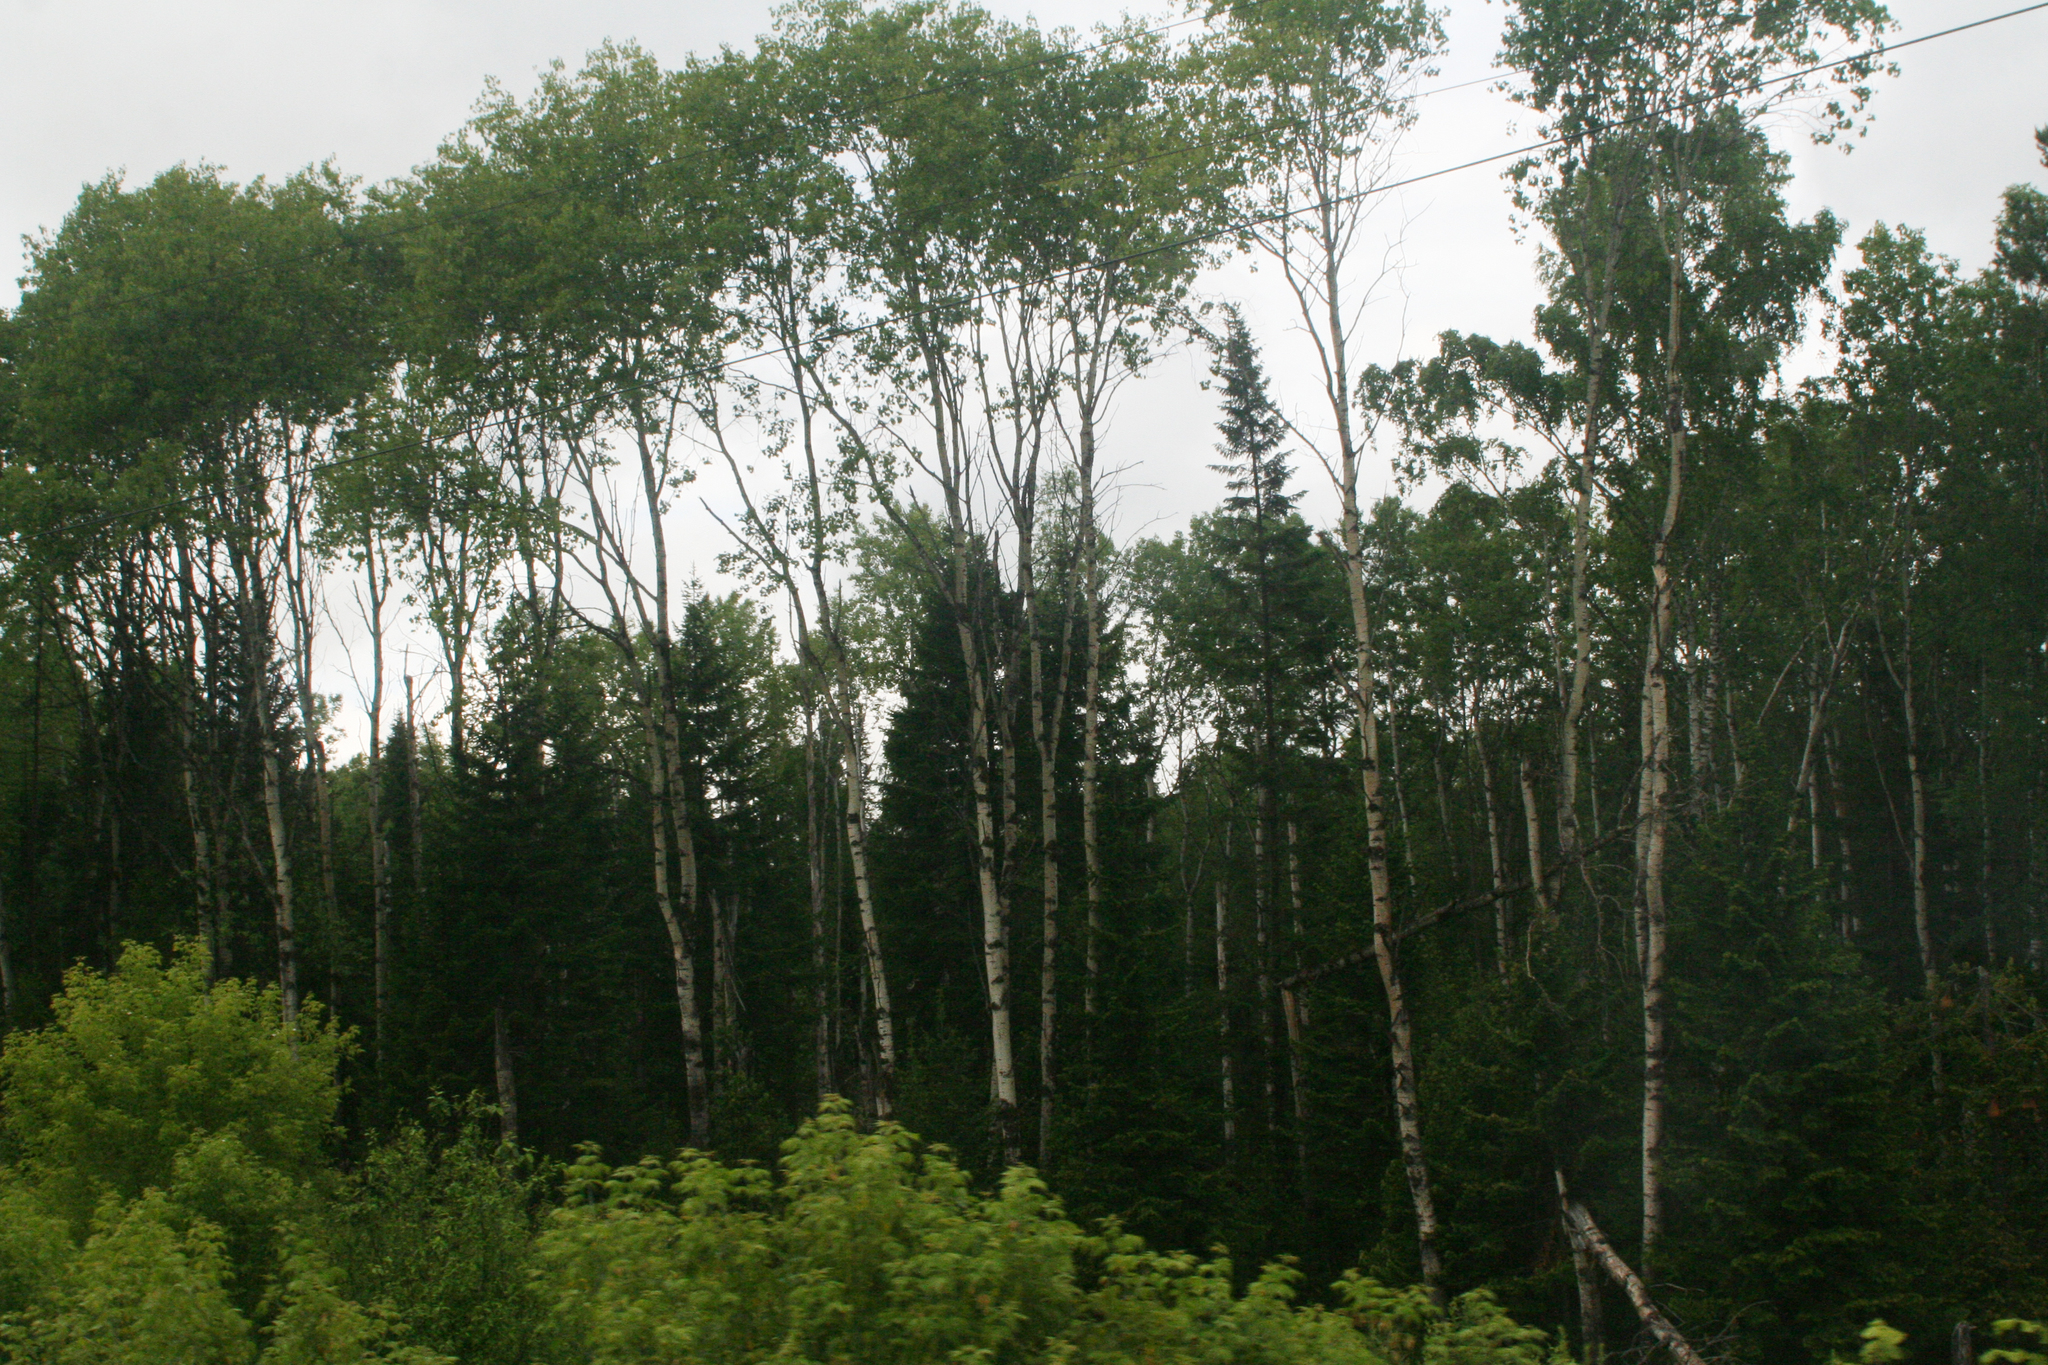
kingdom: Plantae
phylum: Tracheophyta
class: Magnoliopsida
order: Malpighiales
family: Salicaceae
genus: Populus
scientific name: Populus tremula
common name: European aspen
